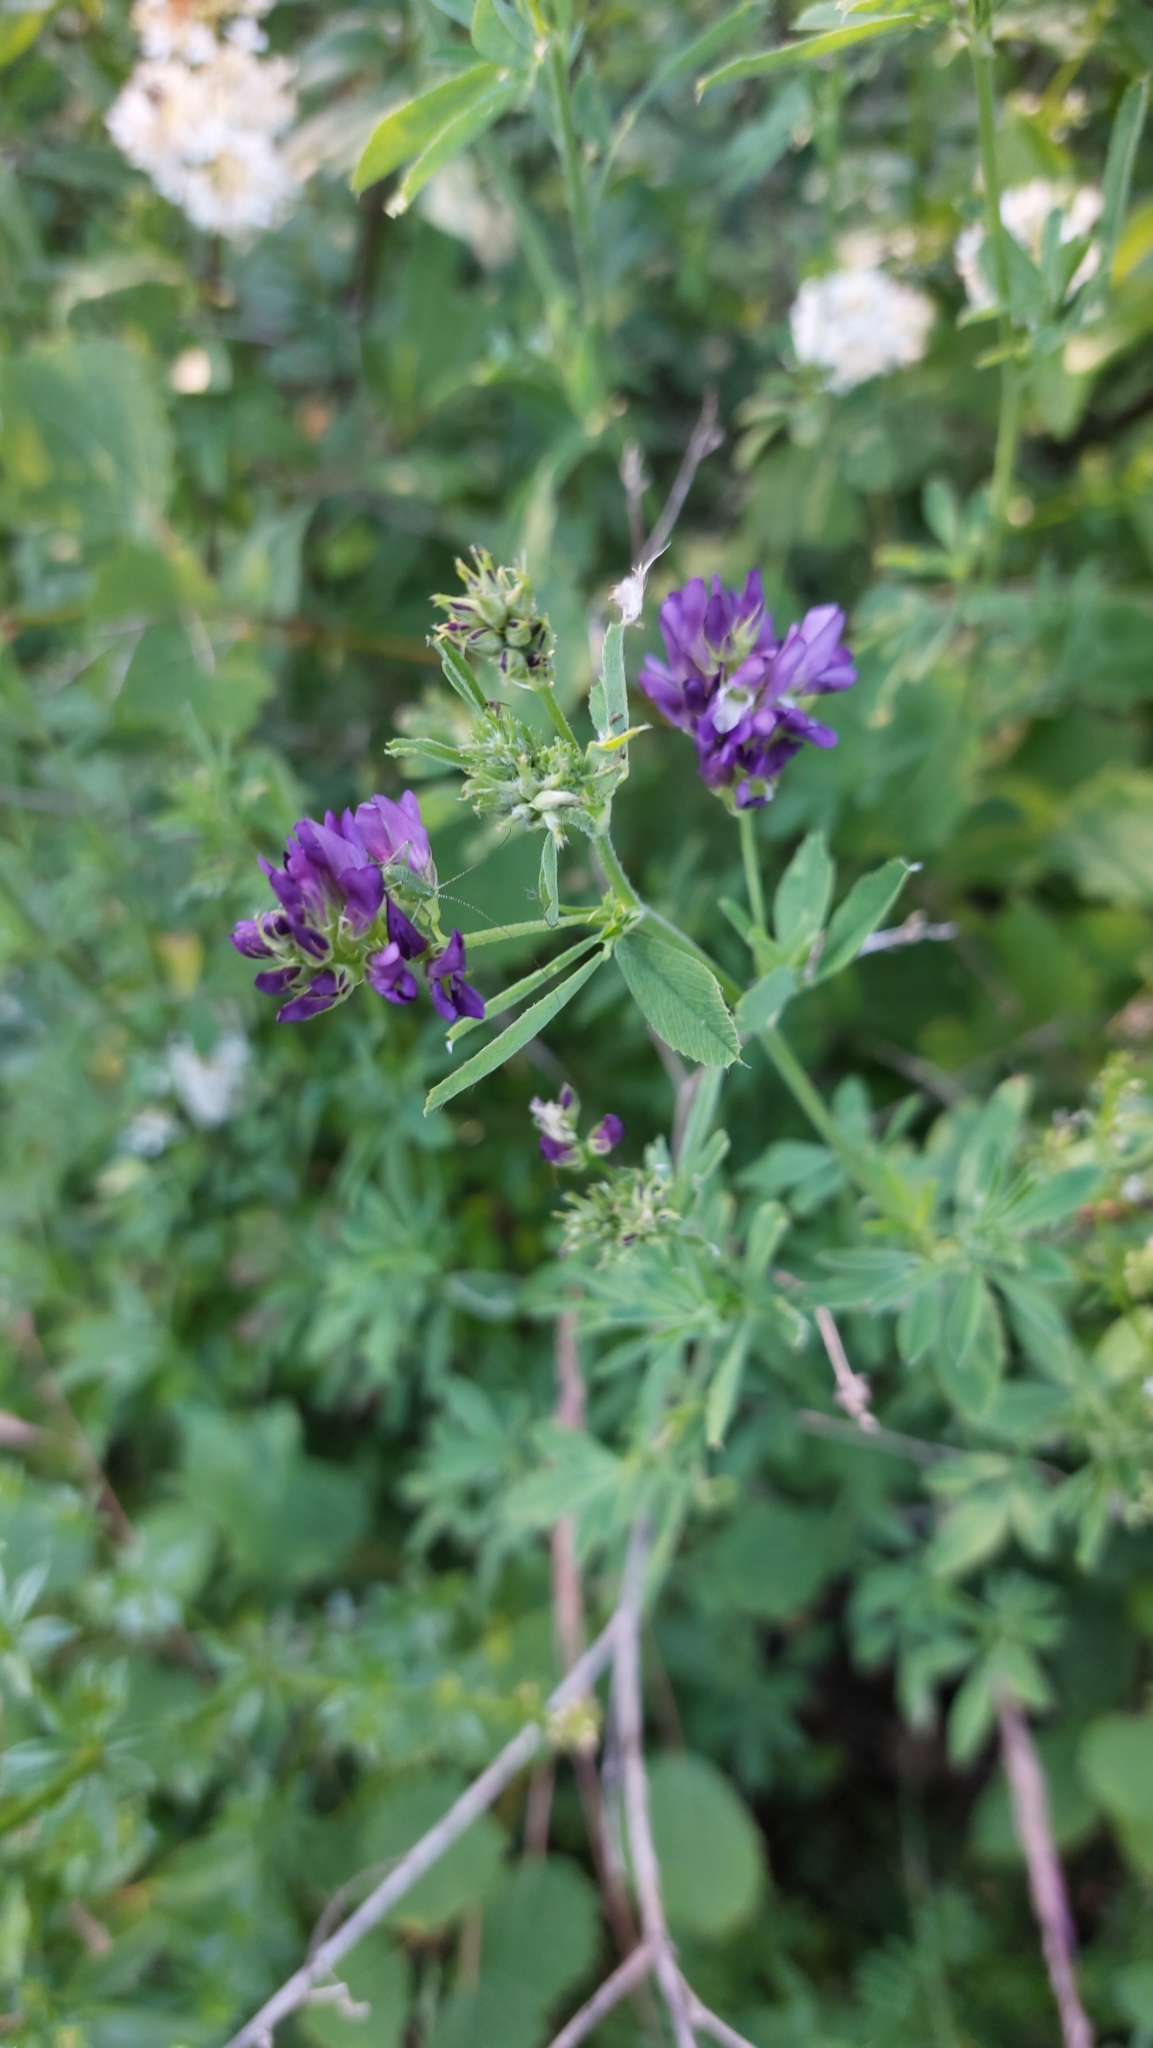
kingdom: Plantae
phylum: Tracheophyta
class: Magnoliopsida
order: Fabales
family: Fabaceae
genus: Medicago
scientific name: Medicago sativa
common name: Alfalfa
